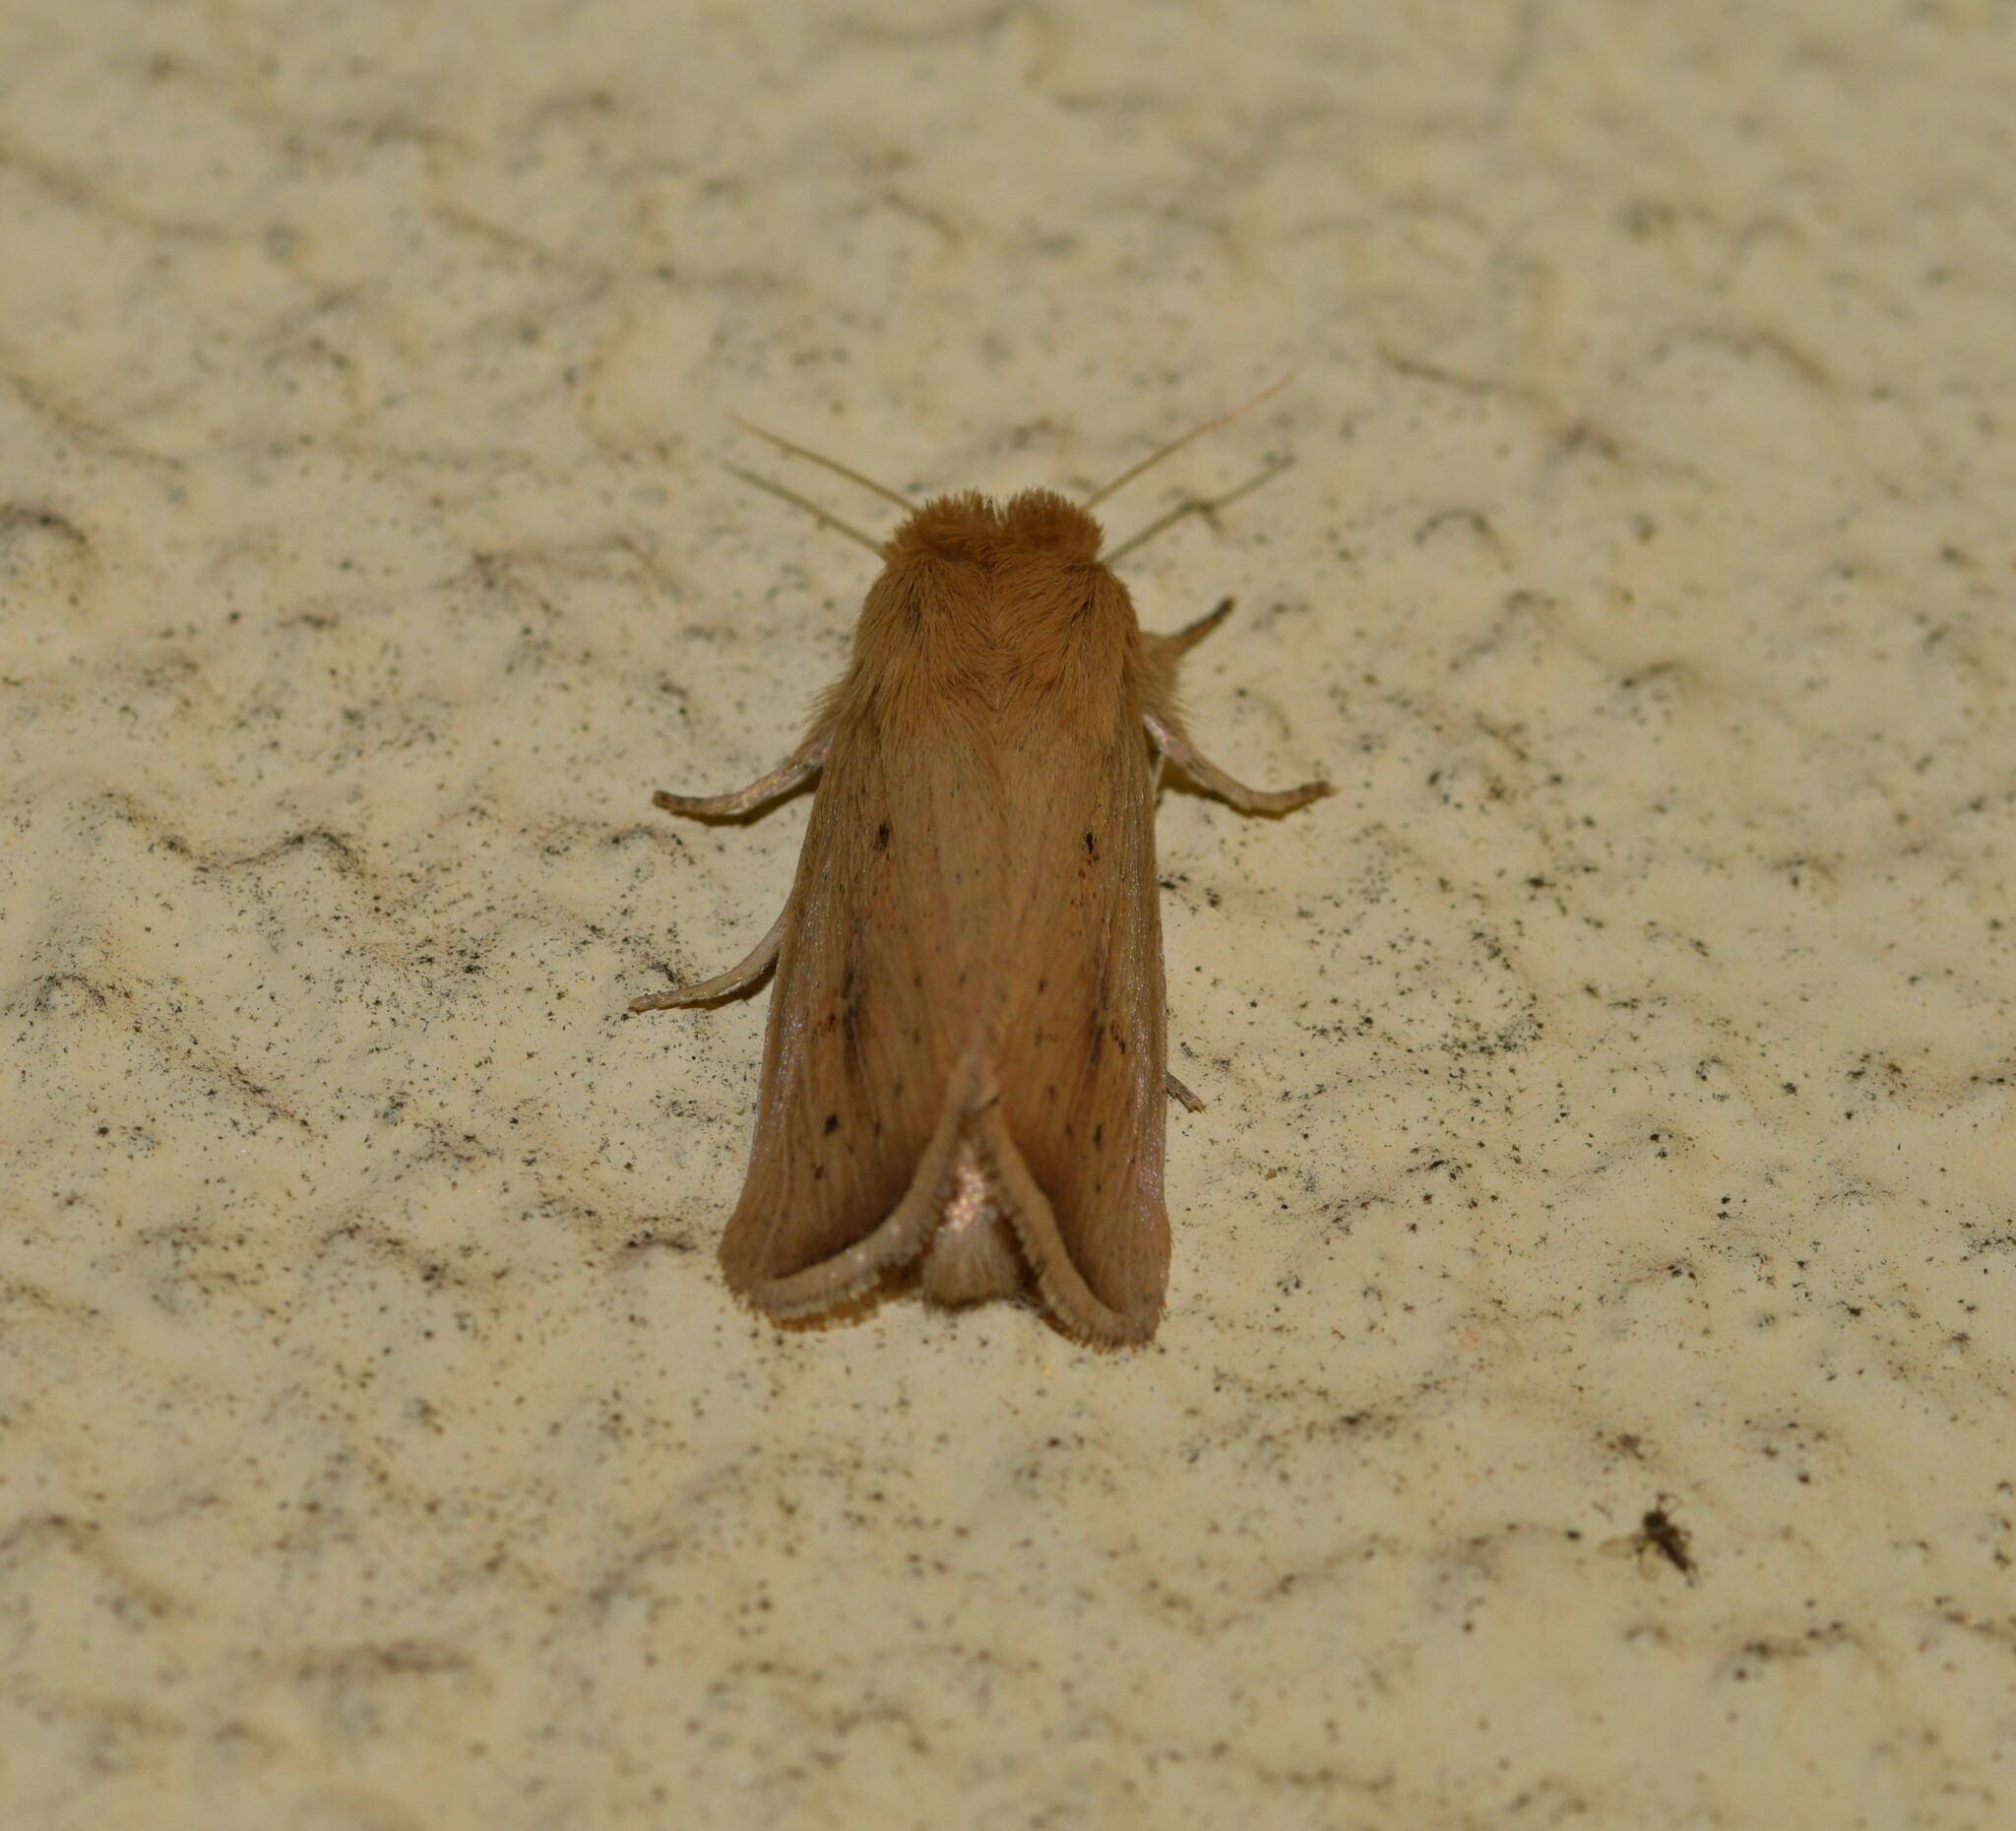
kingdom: Animalia
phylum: Arthropoda
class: Insecta
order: Lepidoptera
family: Noctuidae
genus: Sesamia
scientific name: Sesamia nonagrioides
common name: Pink stem borer
